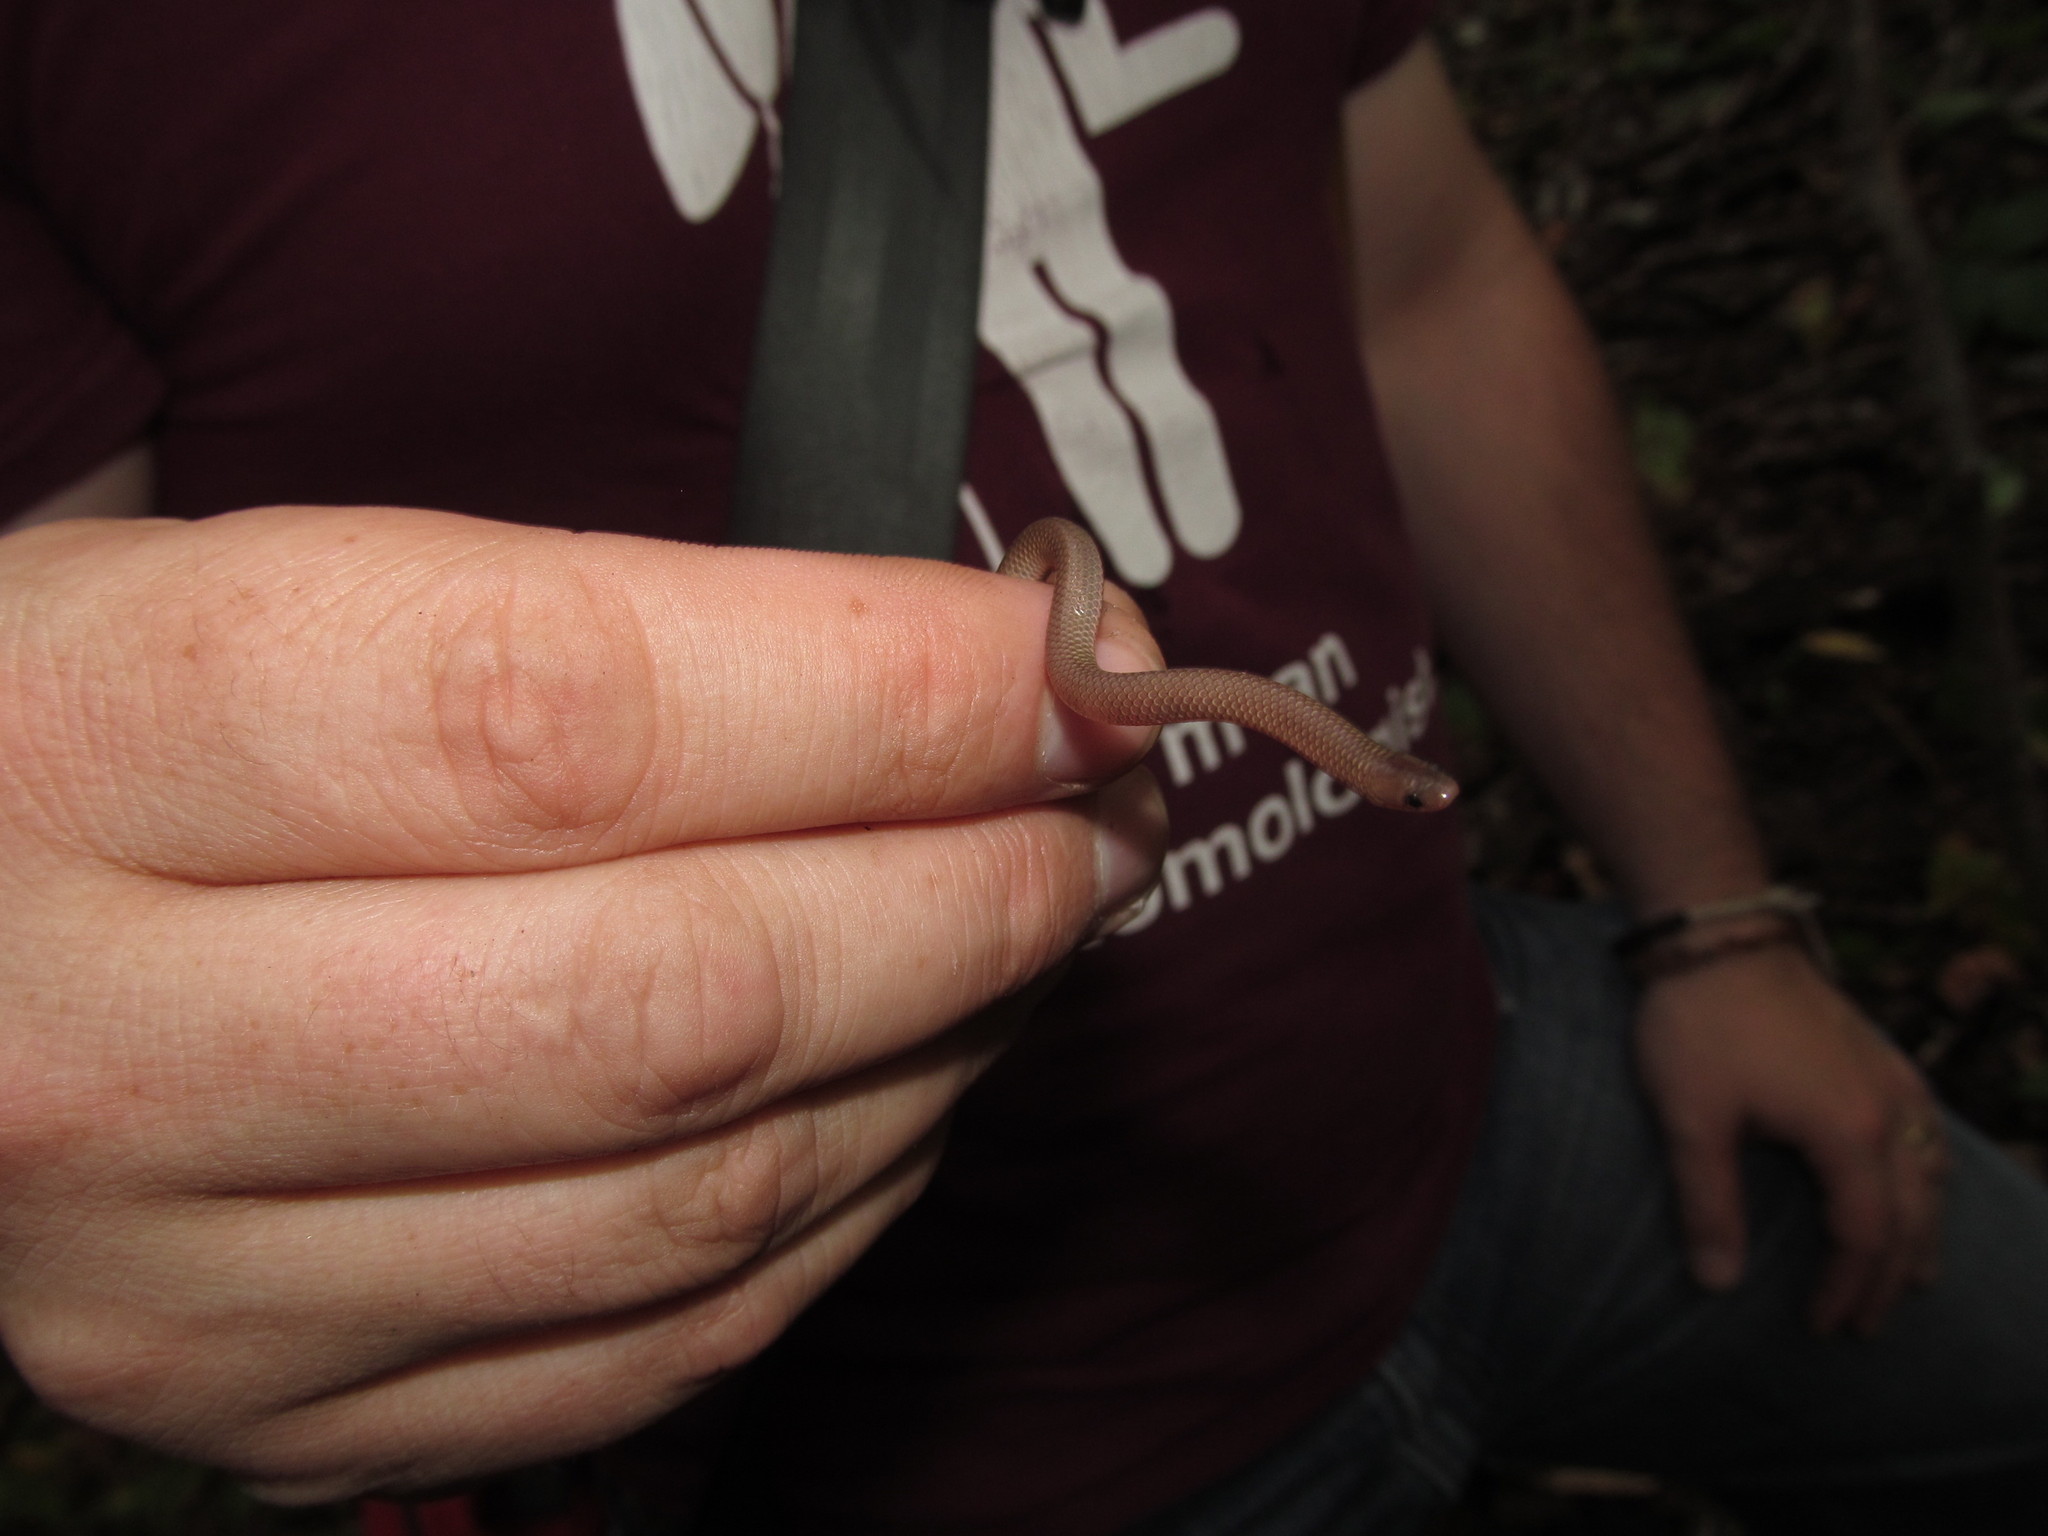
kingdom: Animalia
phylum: Chordata
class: Squamata
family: Colubridae
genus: Carphophis
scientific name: Carphophis amoenus
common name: Eastern worm snake
